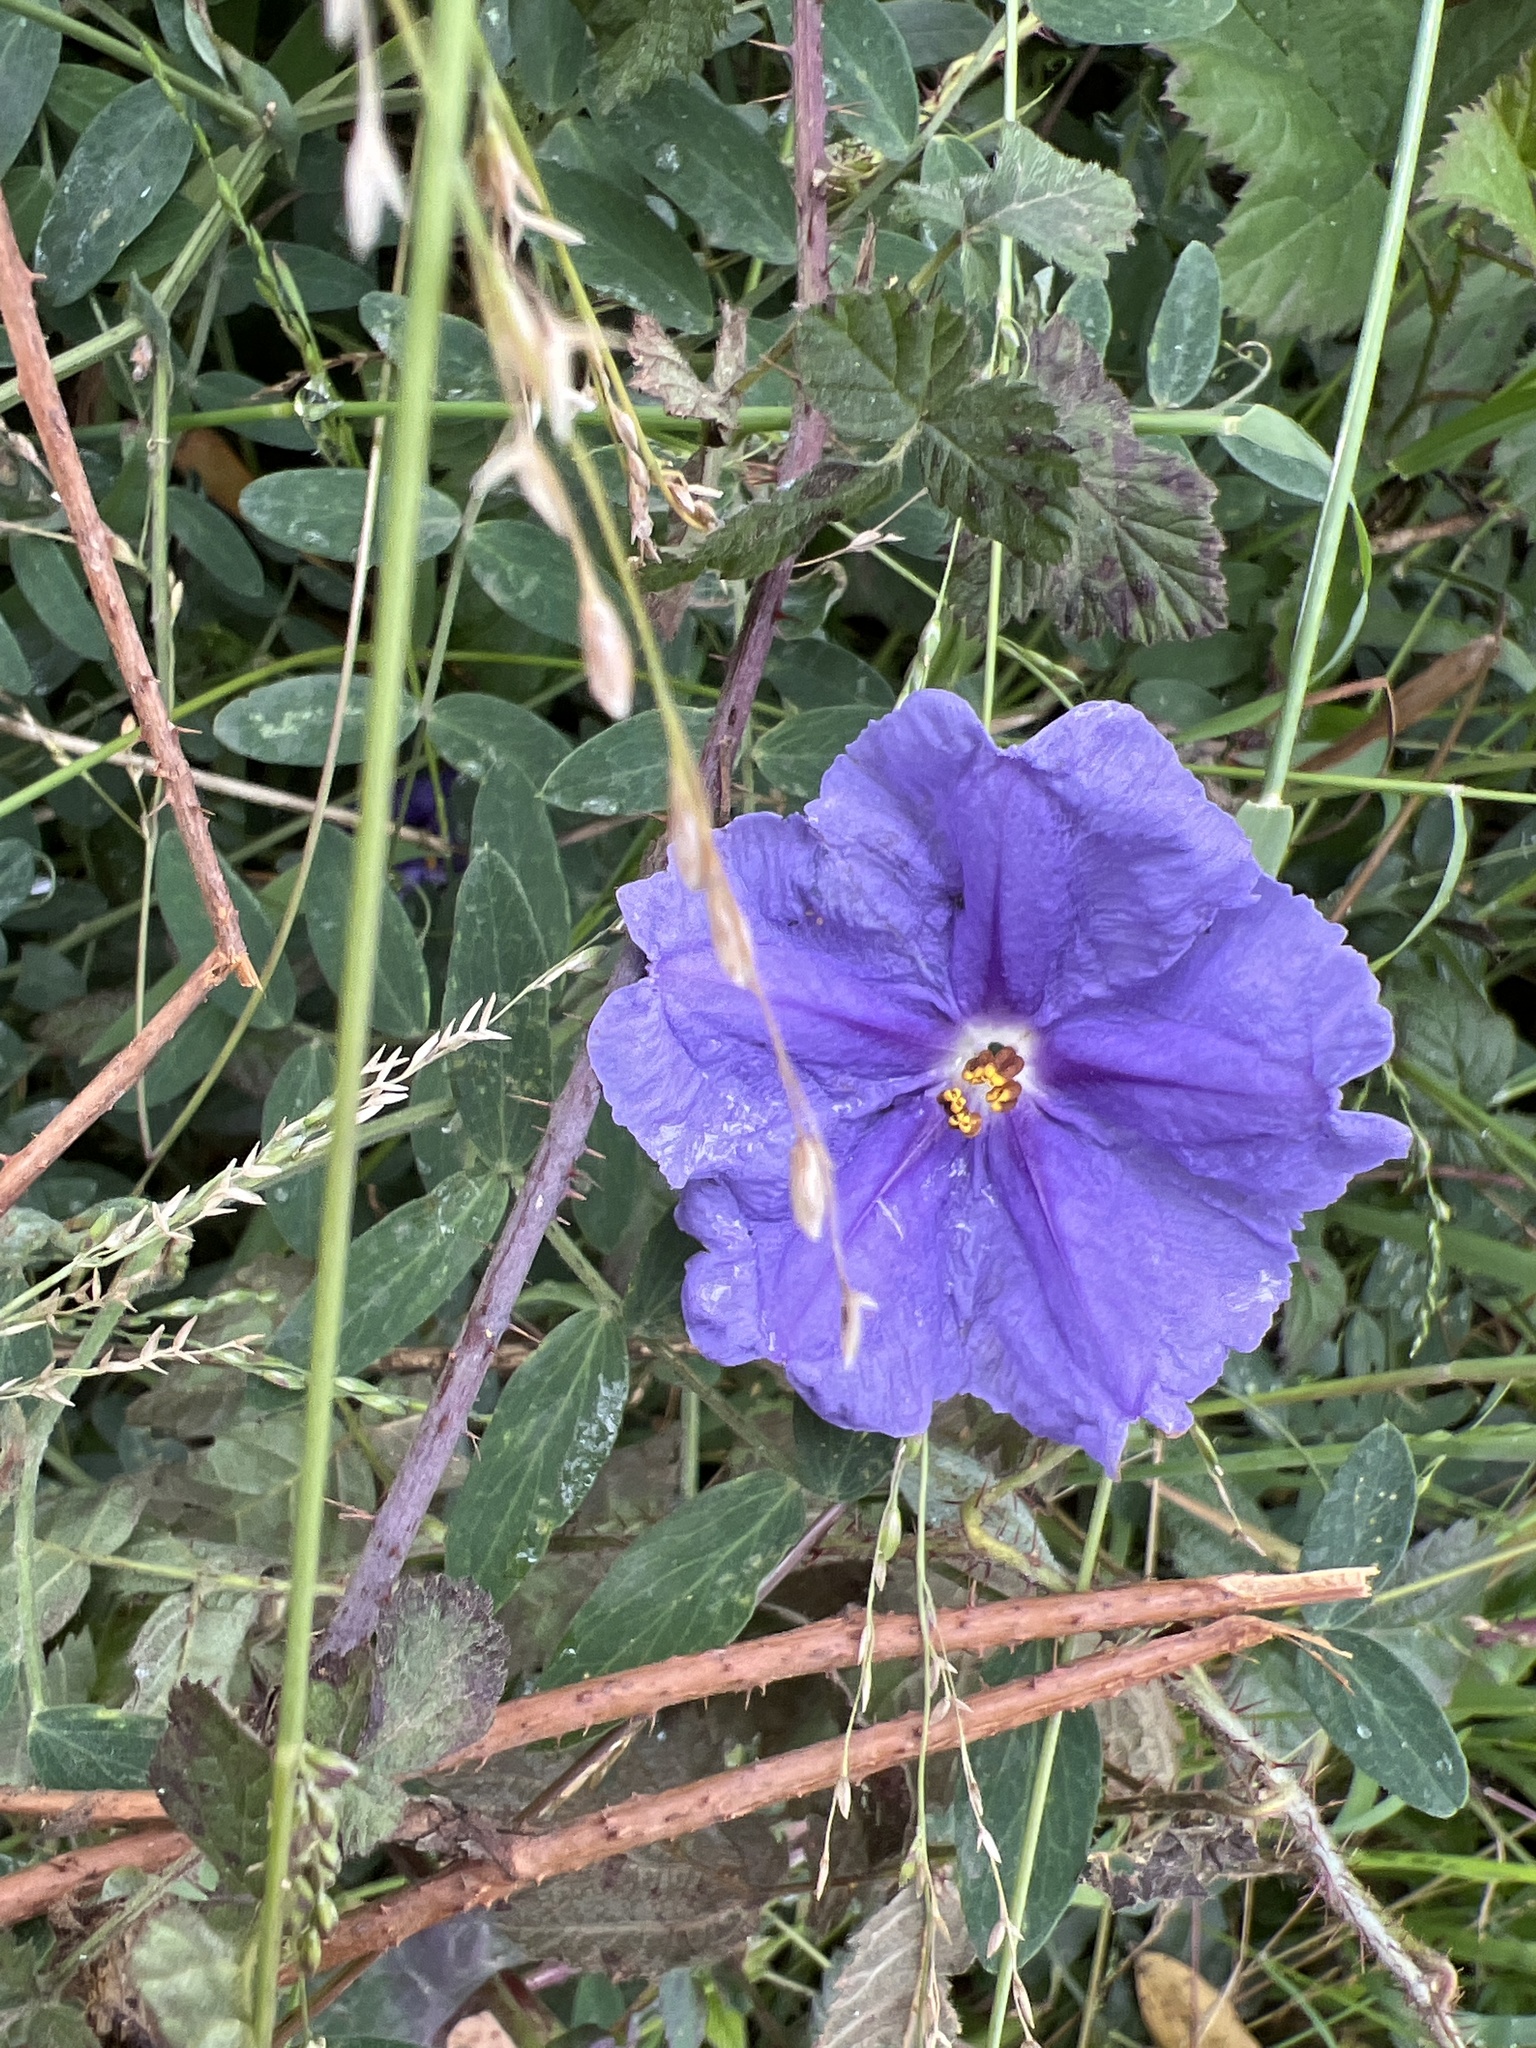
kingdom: Plantae
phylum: Tracheophyta
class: Magnoliopsida
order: Solanales
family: Solanaceae
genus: Solanum
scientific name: Solanum laciniatum
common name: Kangaroo-apple
